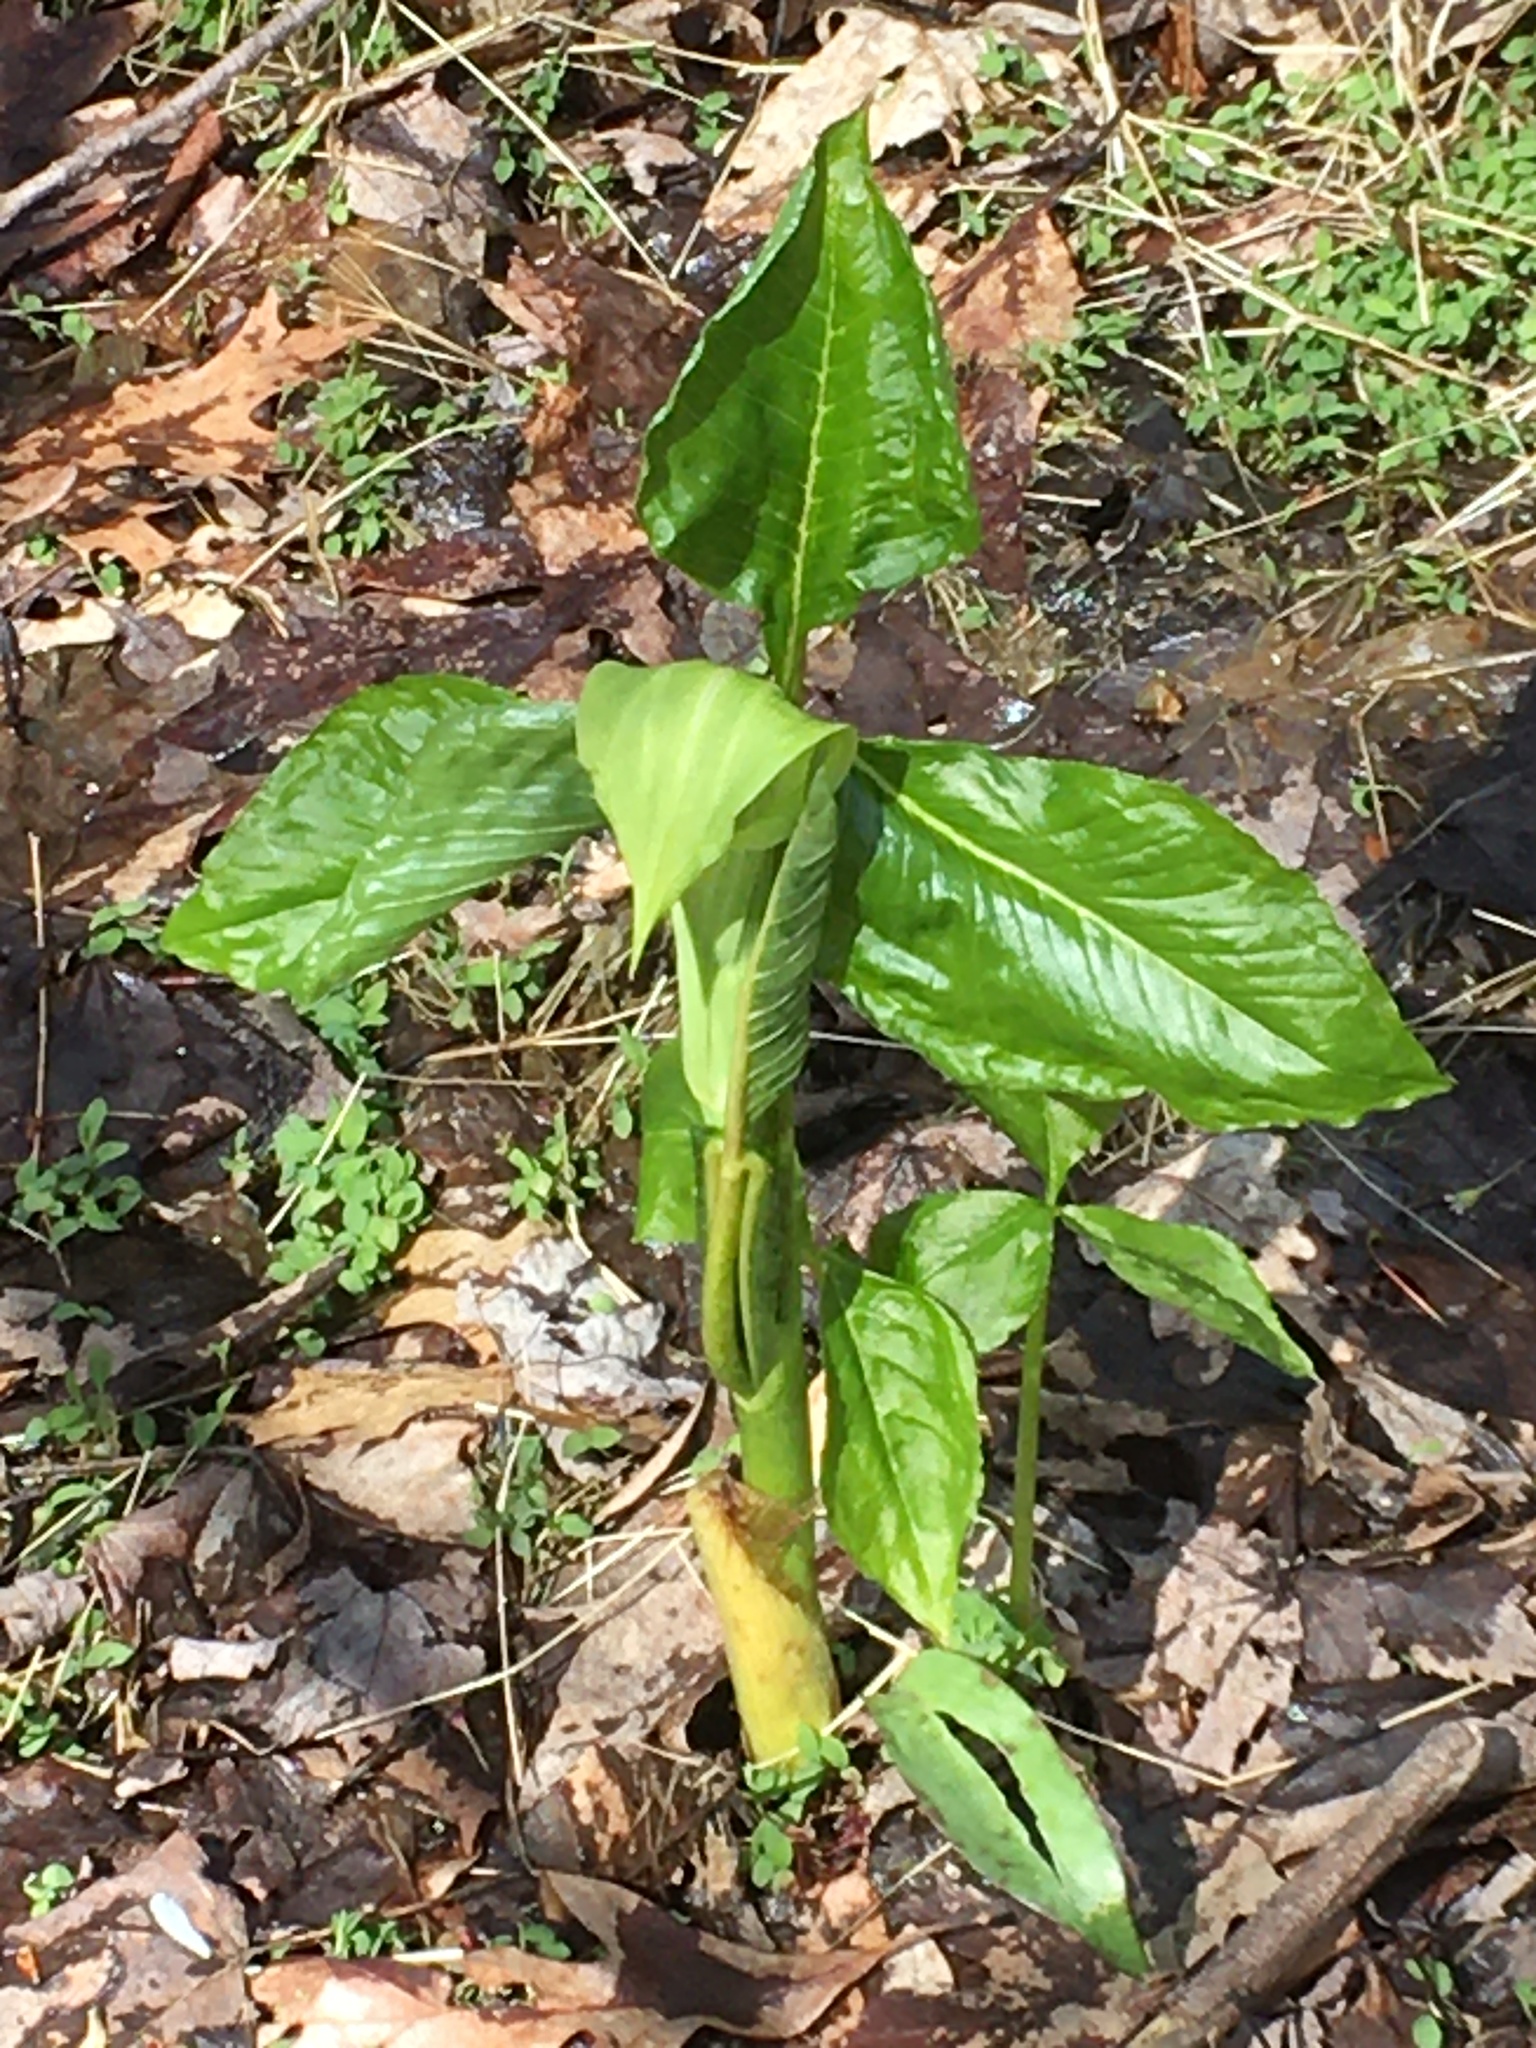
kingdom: Plantae
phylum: Tracheophyta
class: Liliopsida
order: Alismatales
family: Araceae
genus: Arisaema
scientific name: Arisaema triphyllum
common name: Jack-in-the-pulpit
